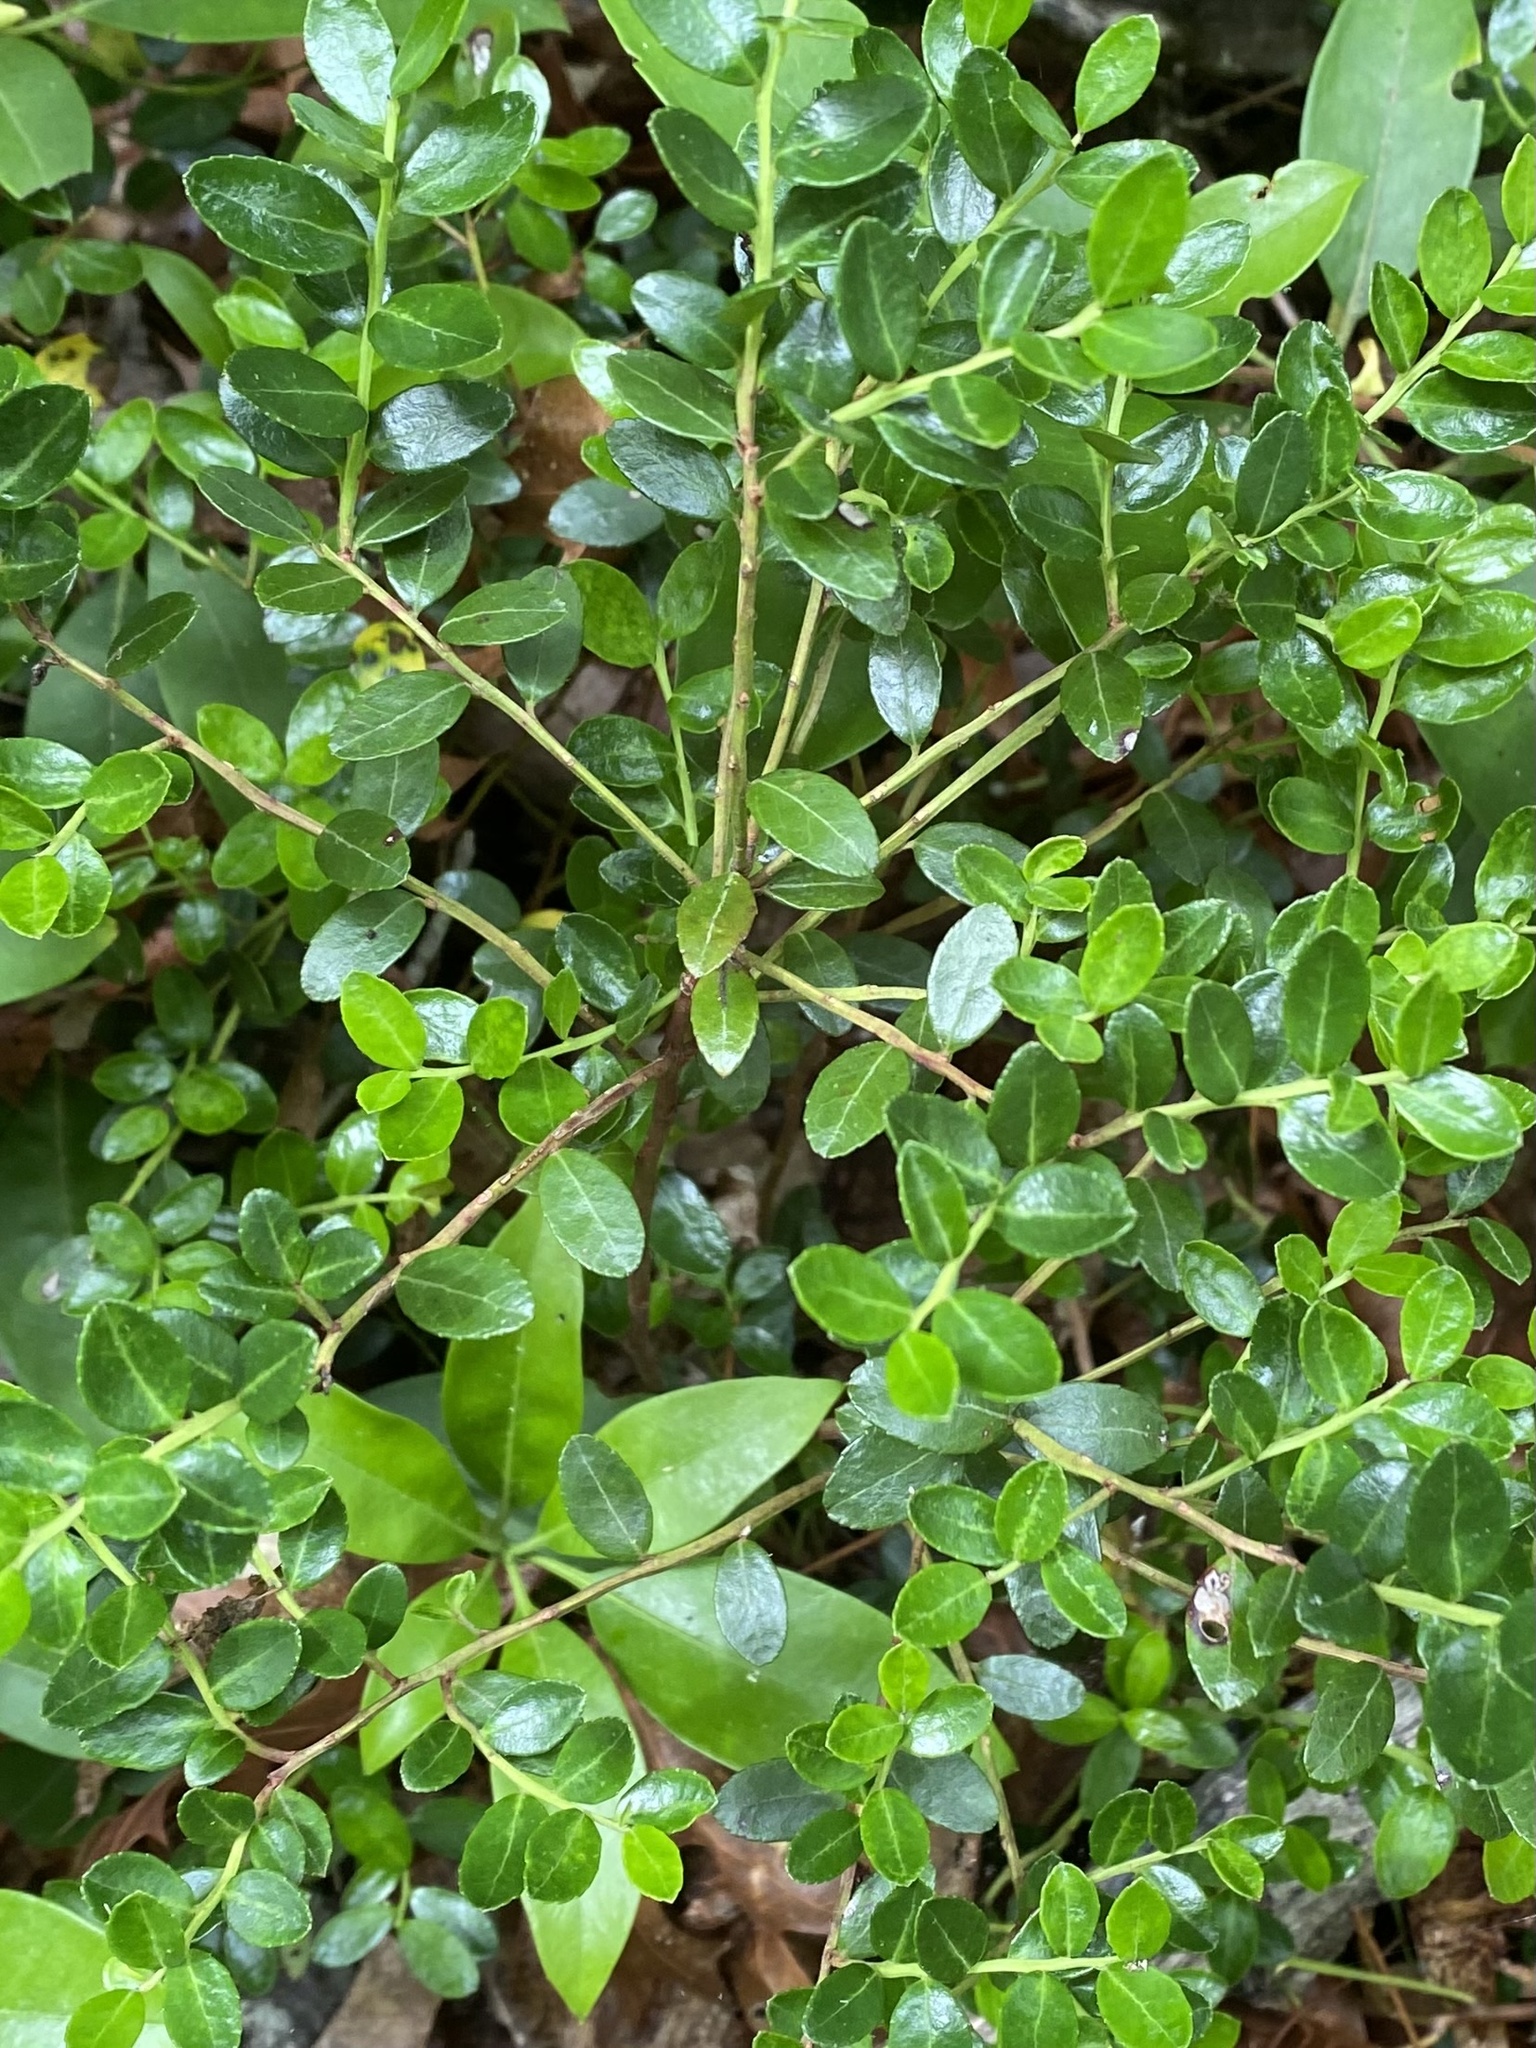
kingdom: Plantae
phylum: Tracheophyta
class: Magnoliopsida
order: Ericales
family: Ericaceae
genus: Gaylussacia
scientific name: Gaylussacia brachycera
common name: Box huckleberry
